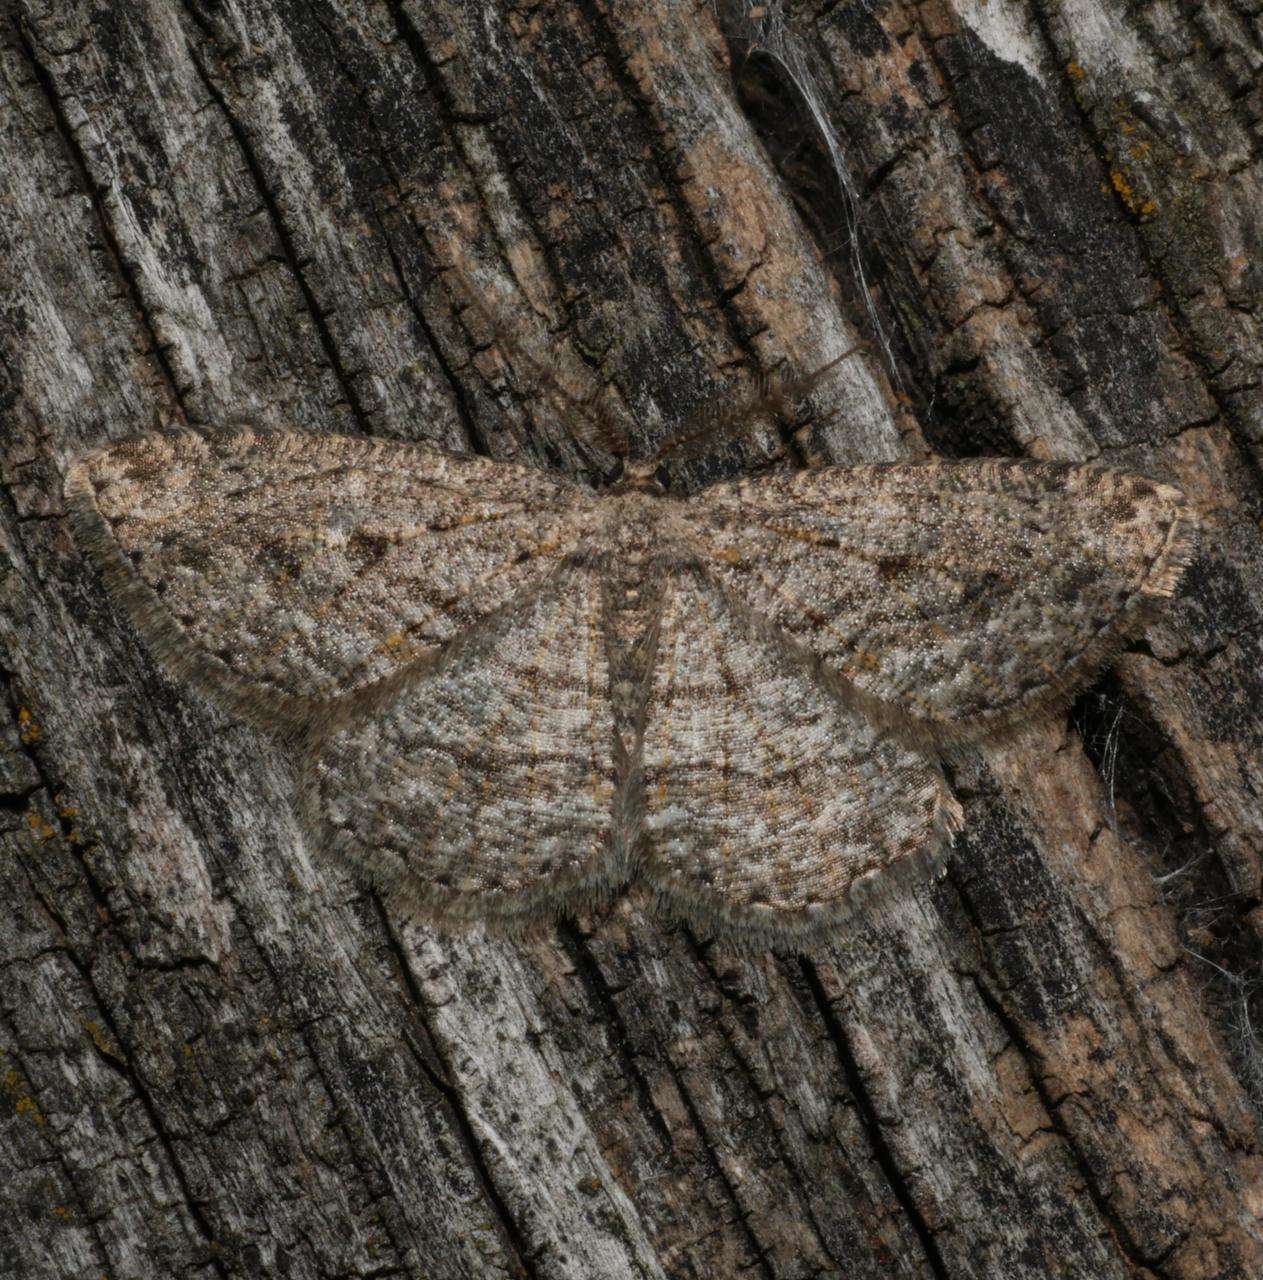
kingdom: Animalia
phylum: Arthropoda
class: Insecta
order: Lepidoptera
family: Geometridae
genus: Zermizinga
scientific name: Zermizinga sinuata
